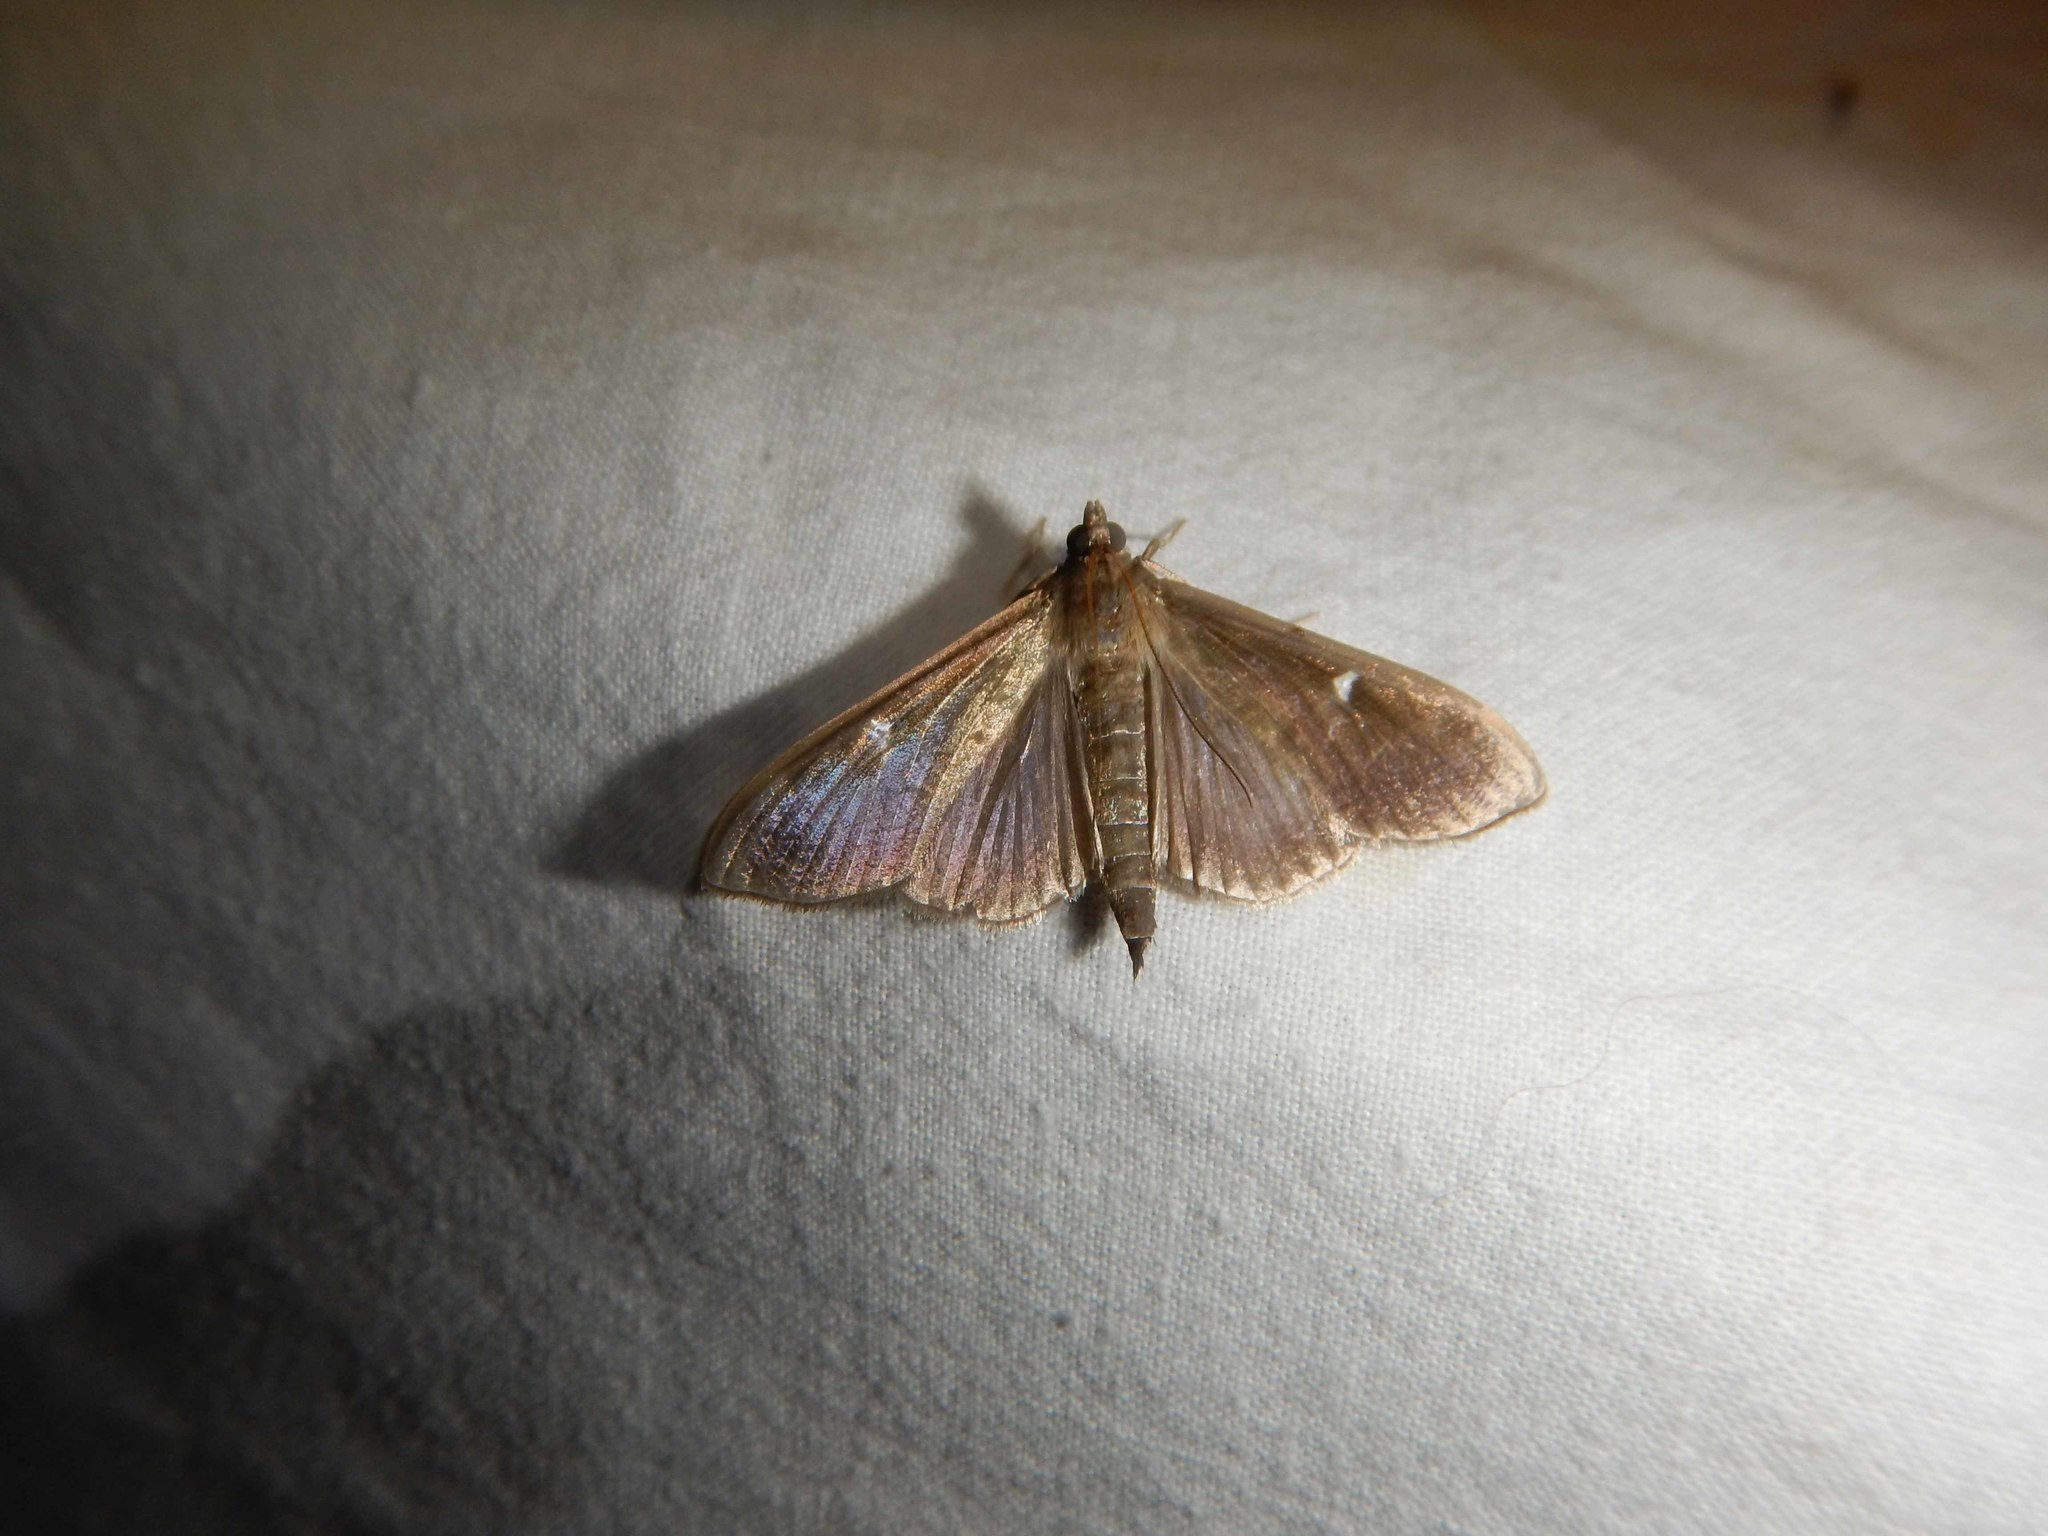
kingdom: Animalia
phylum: Arthropoda
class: Insecta
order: Lepidoptera
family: Crambidae
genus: Cydalima
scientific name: Cydalima perspectalis
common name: Box tree moth
